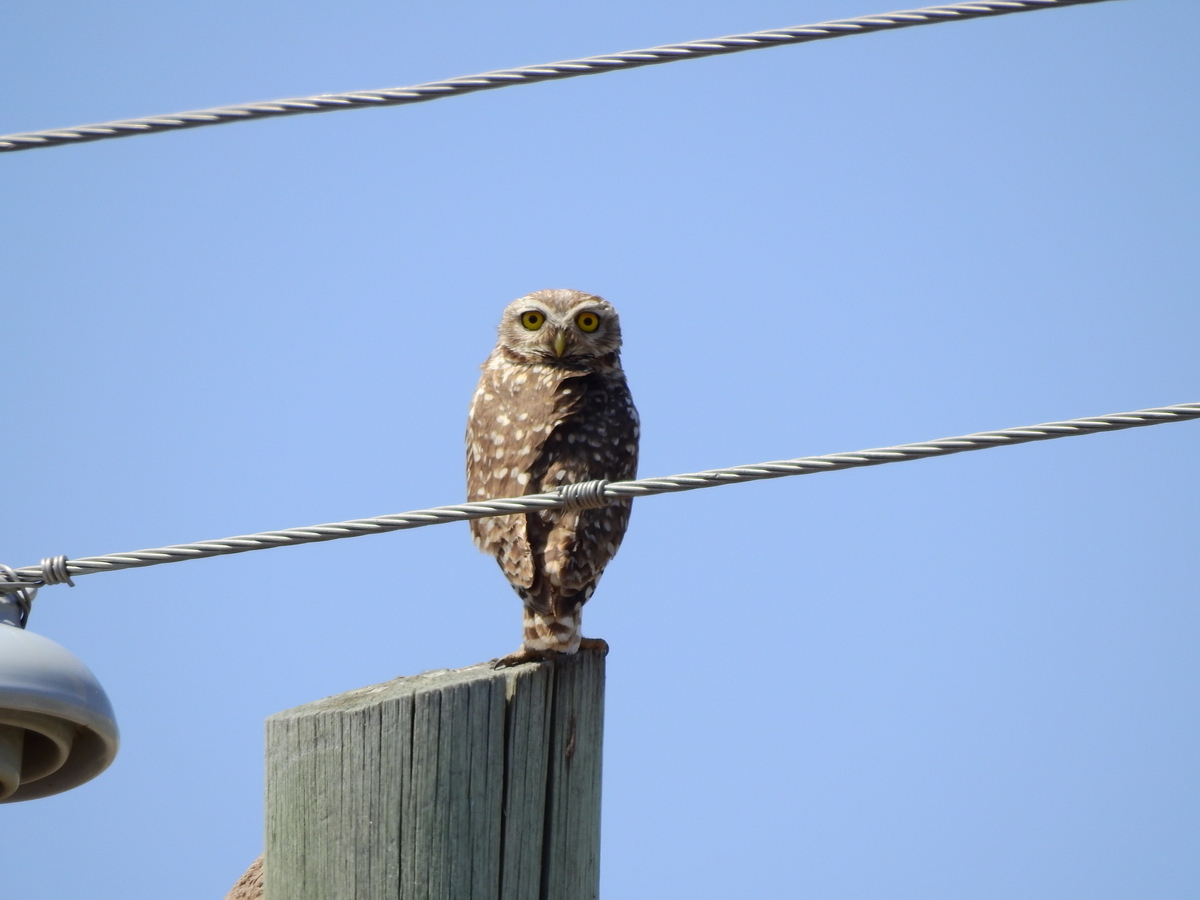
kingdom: Animalia
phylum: Chordata
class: Aves
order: Strigiformes
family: Strigidae
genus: Athene
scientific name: Athene cunicularia
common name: Burrowing owl
